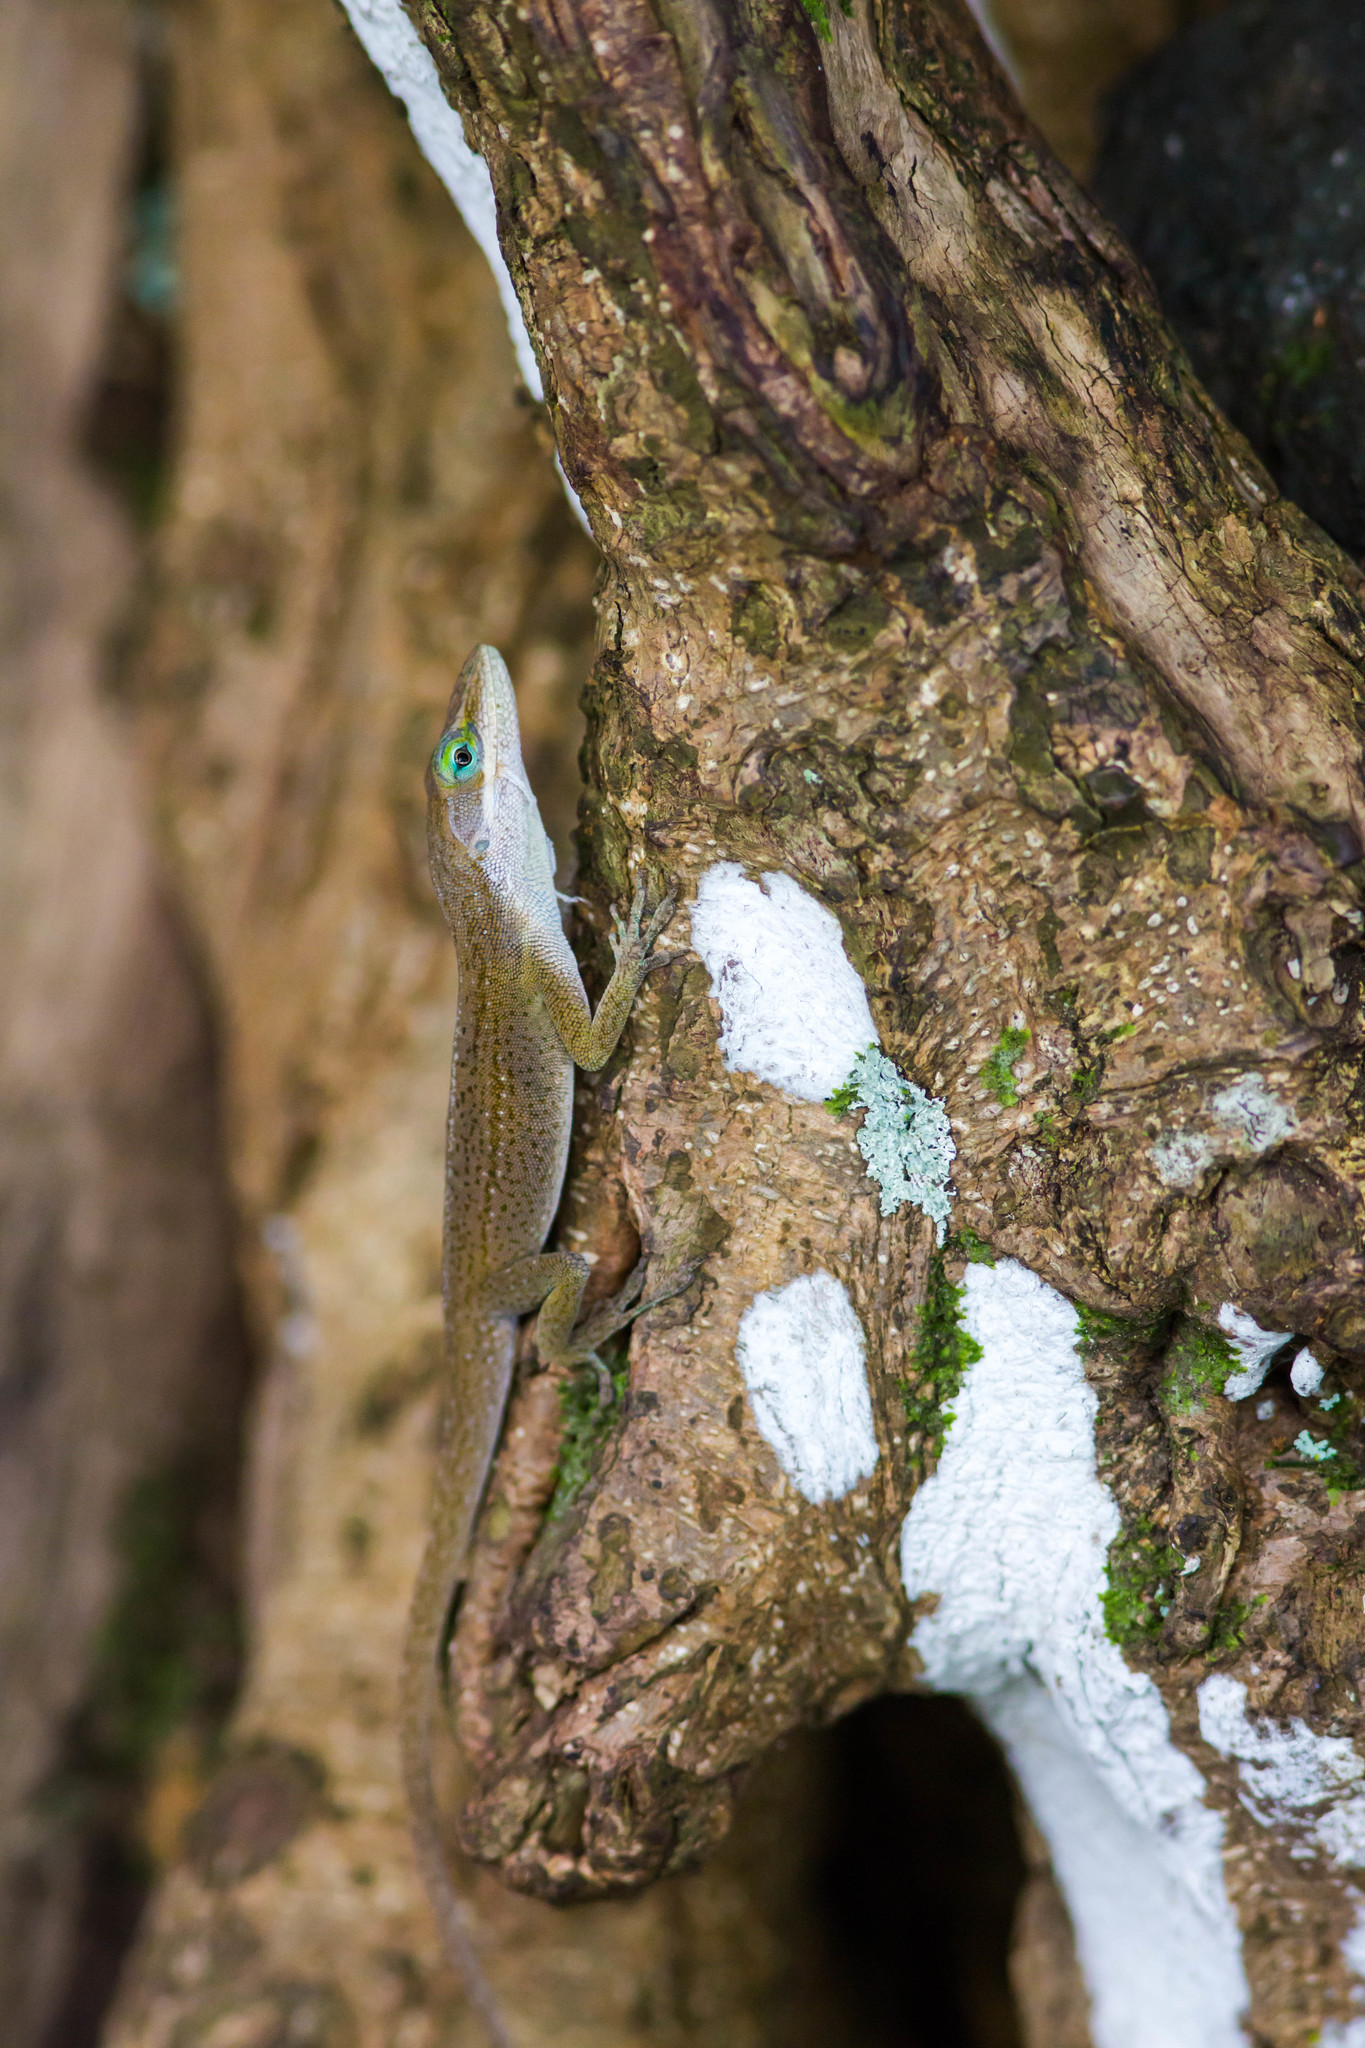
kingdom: Animalia
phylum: Chordata
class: Squamata
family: Dactyloidae
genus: Anolis
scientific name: Anolis carolinensis
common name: Green anole
